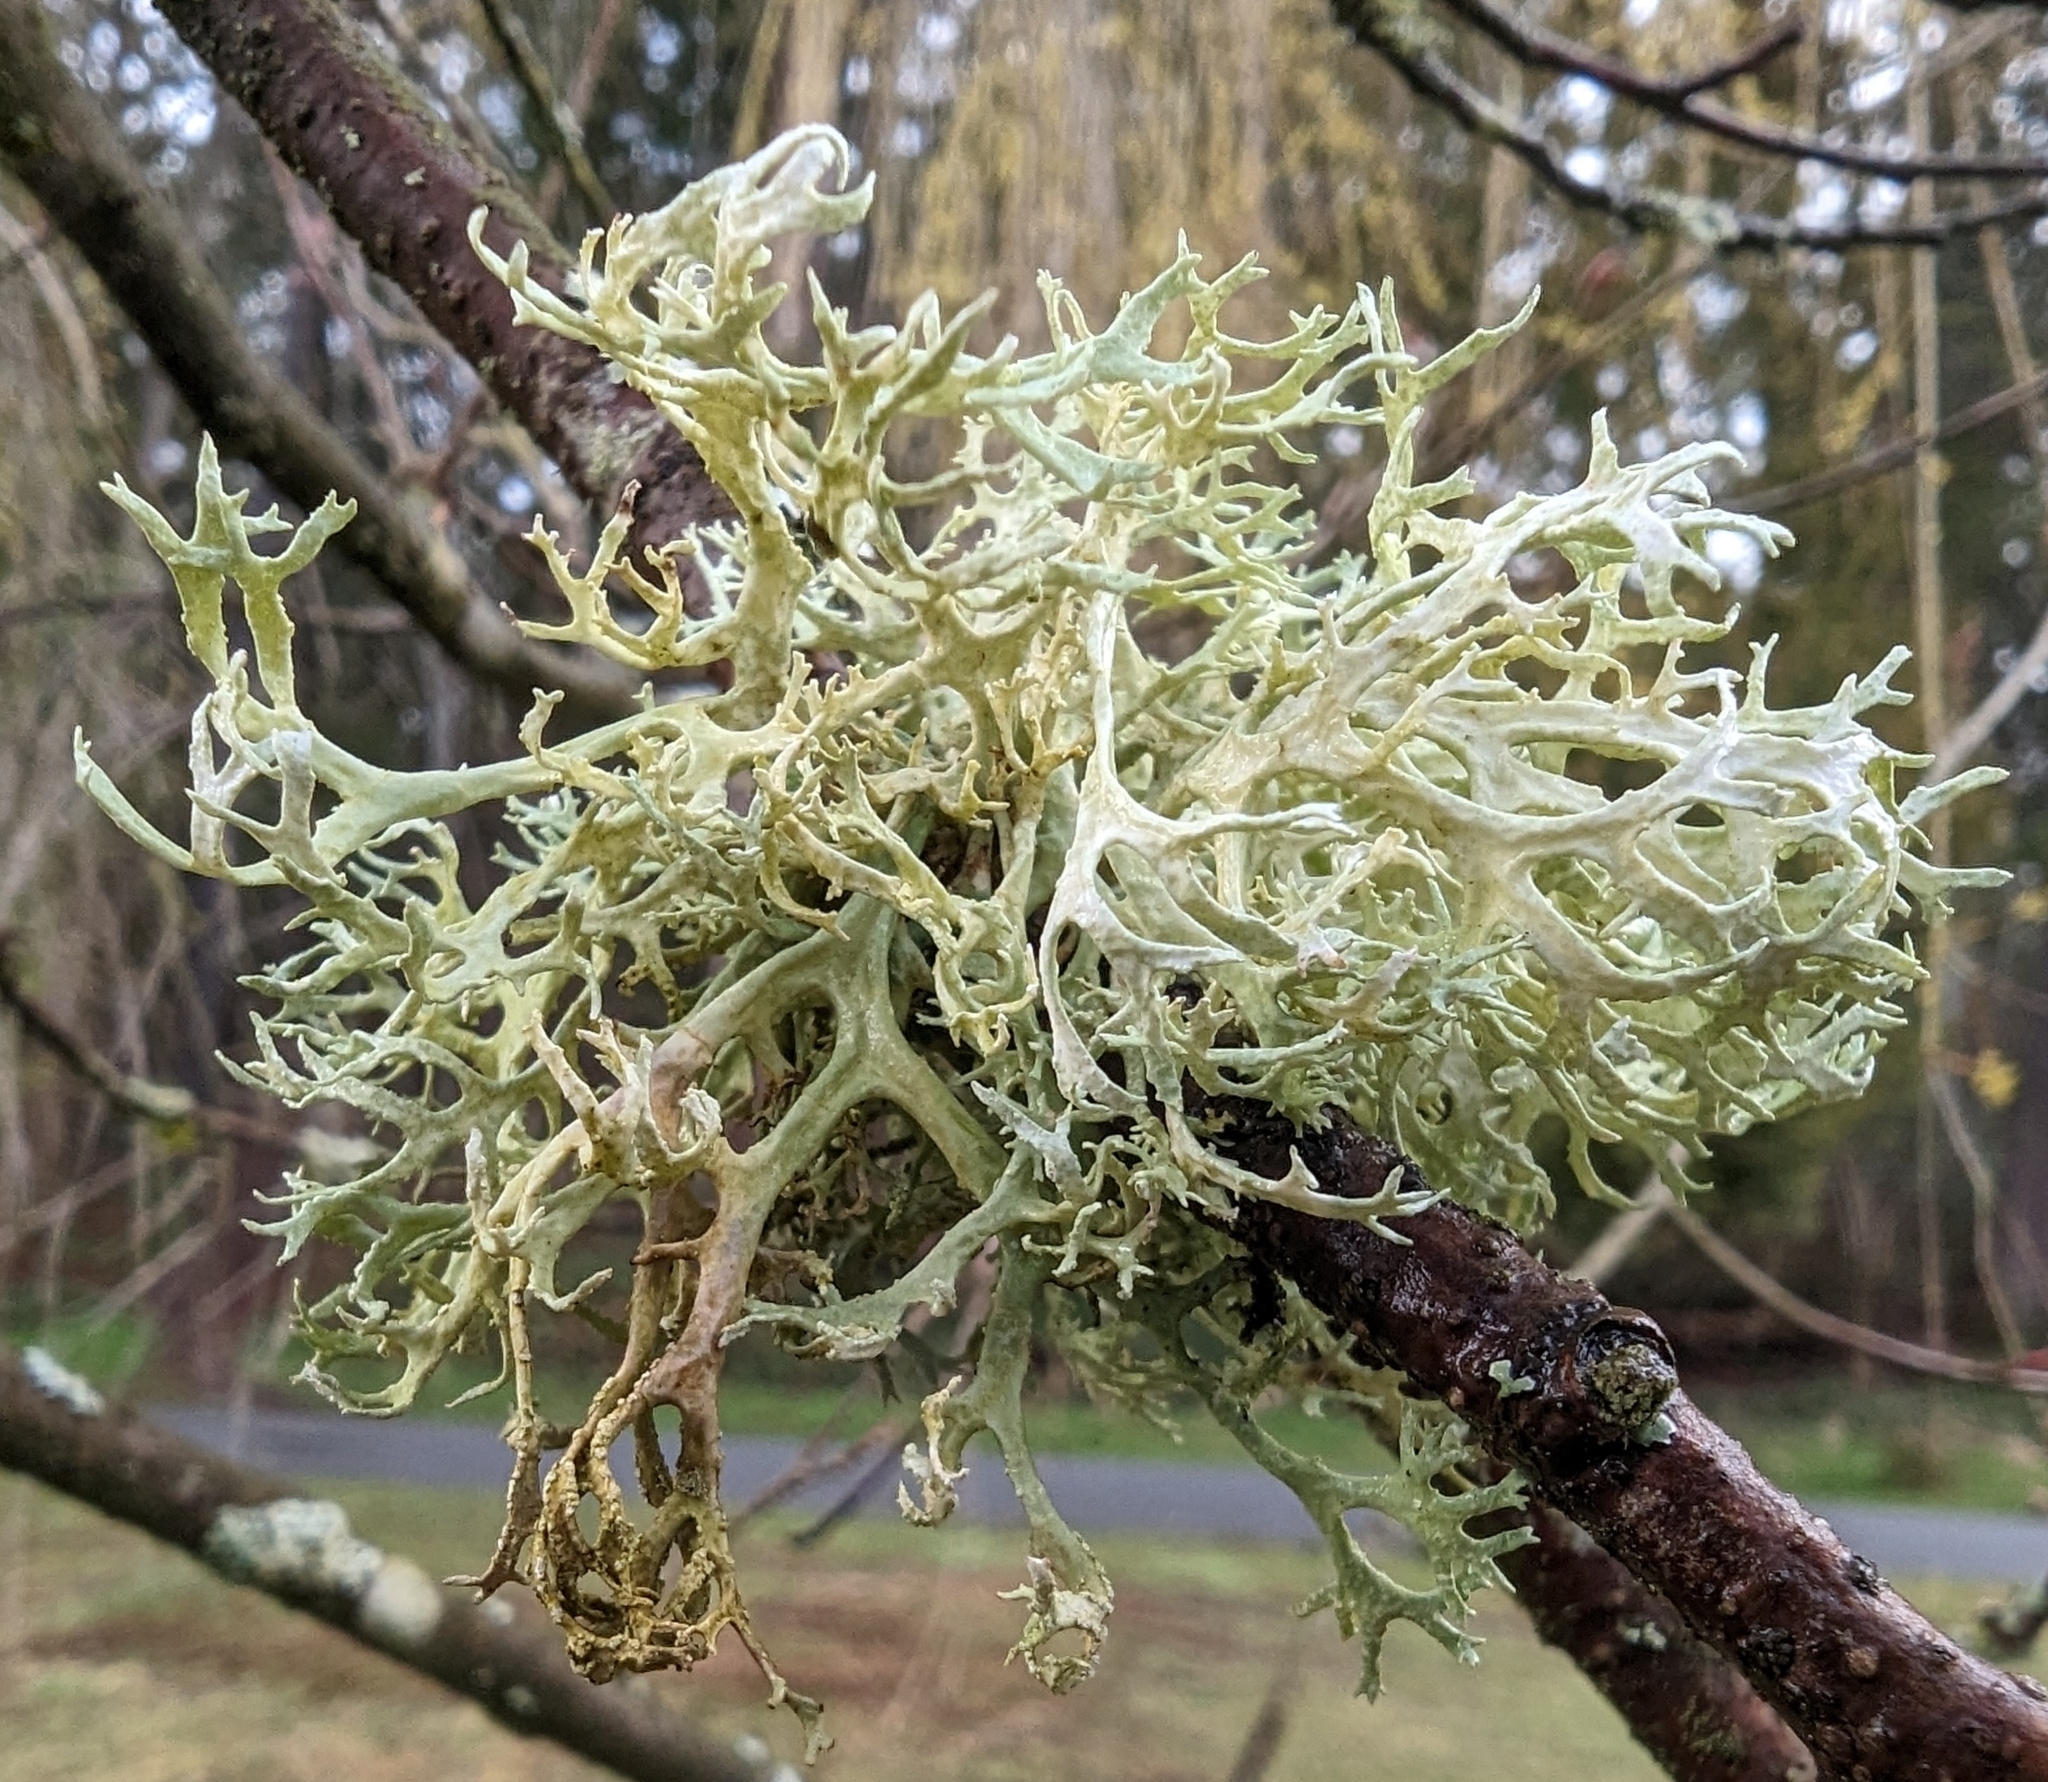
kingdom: Fungi
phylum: Ascomycota
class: Lecanoromycetes
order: Lecanorales
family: Parmeliaceae
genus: Evernia
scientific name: Evernia prunastri
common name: Oak moss
